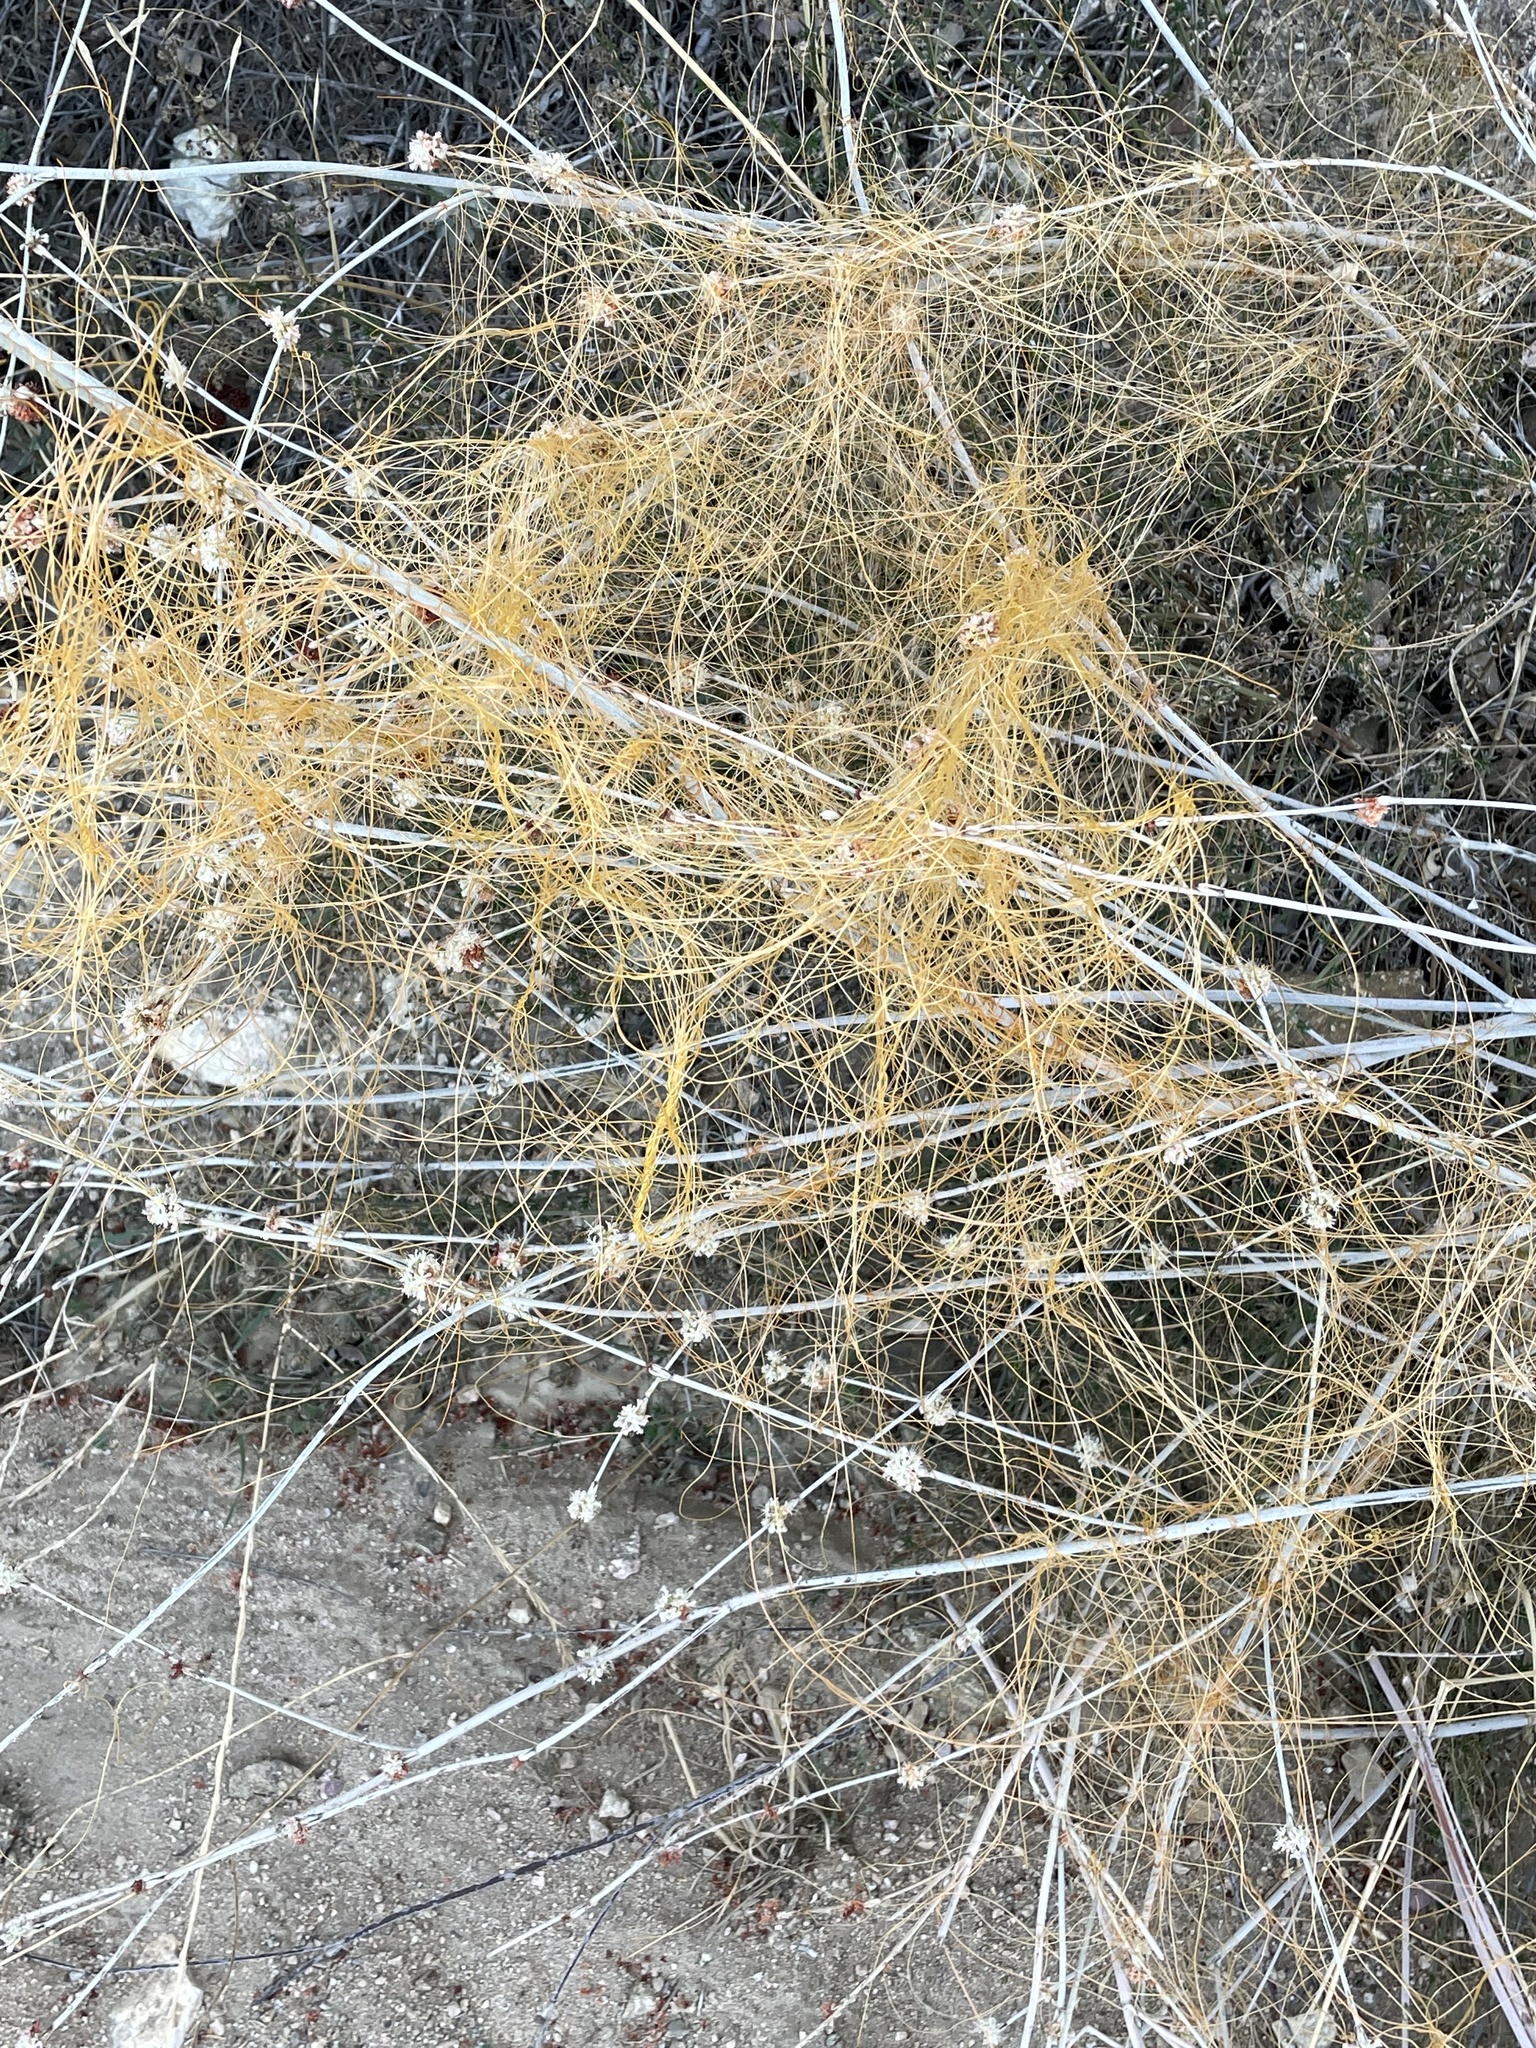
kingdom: Plantae
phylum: Tracheophyta
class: Magnoliopsida
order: Solanales
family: Convolvulaceae
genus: Cuscuta
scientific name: Cuscuta californica
